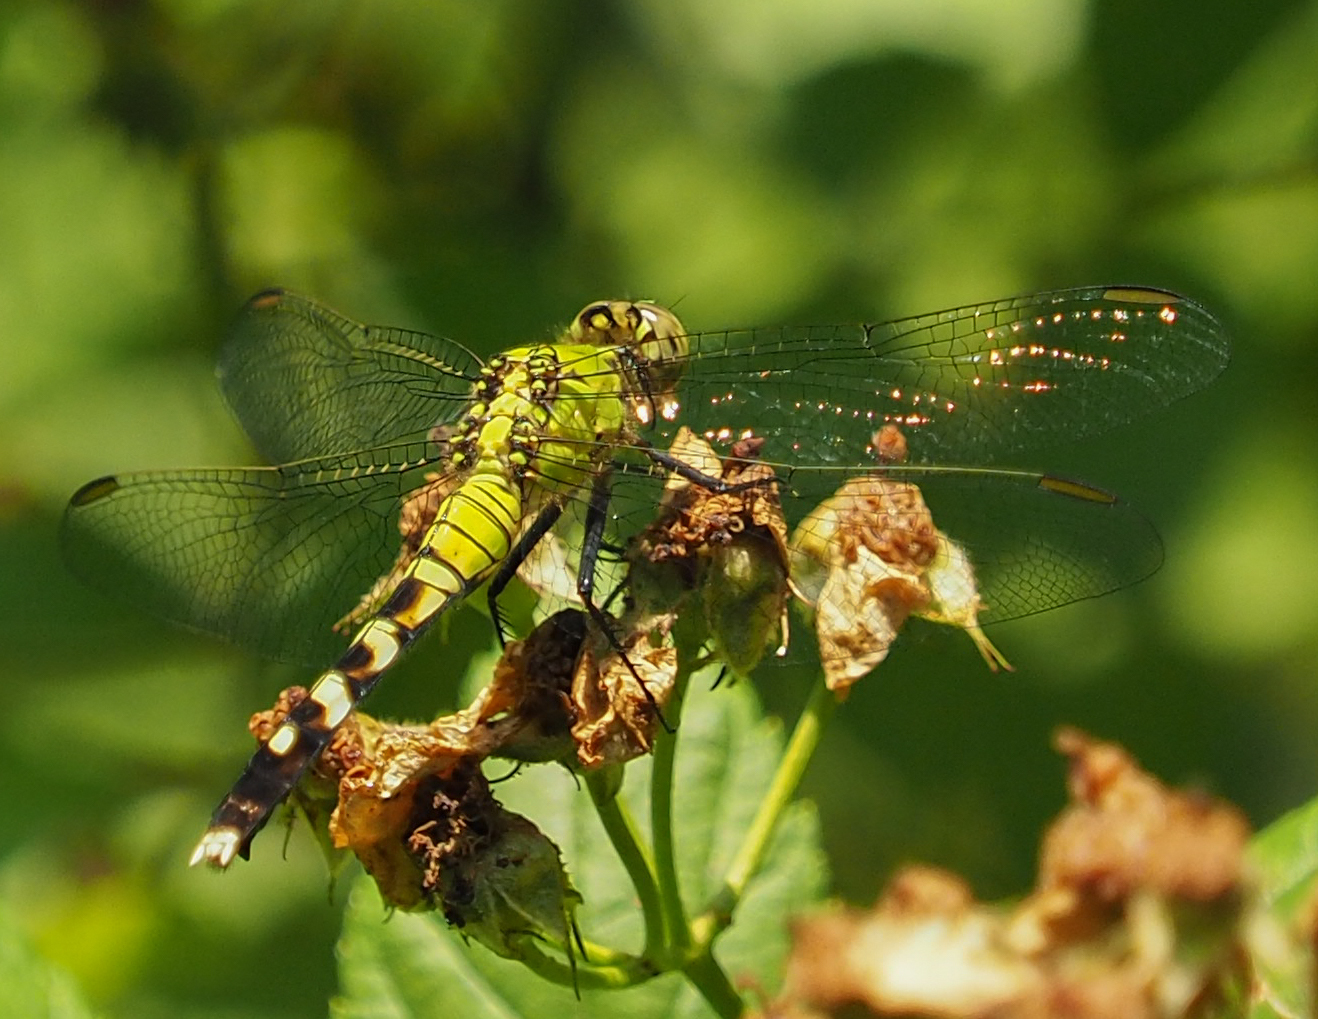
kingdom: Animalia
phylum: Arthropoda
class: Insecta
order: Odonata
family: Libellulidae
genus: Erythemis
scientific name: Erythemis simplicicollis
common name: Eastern pondhawk
